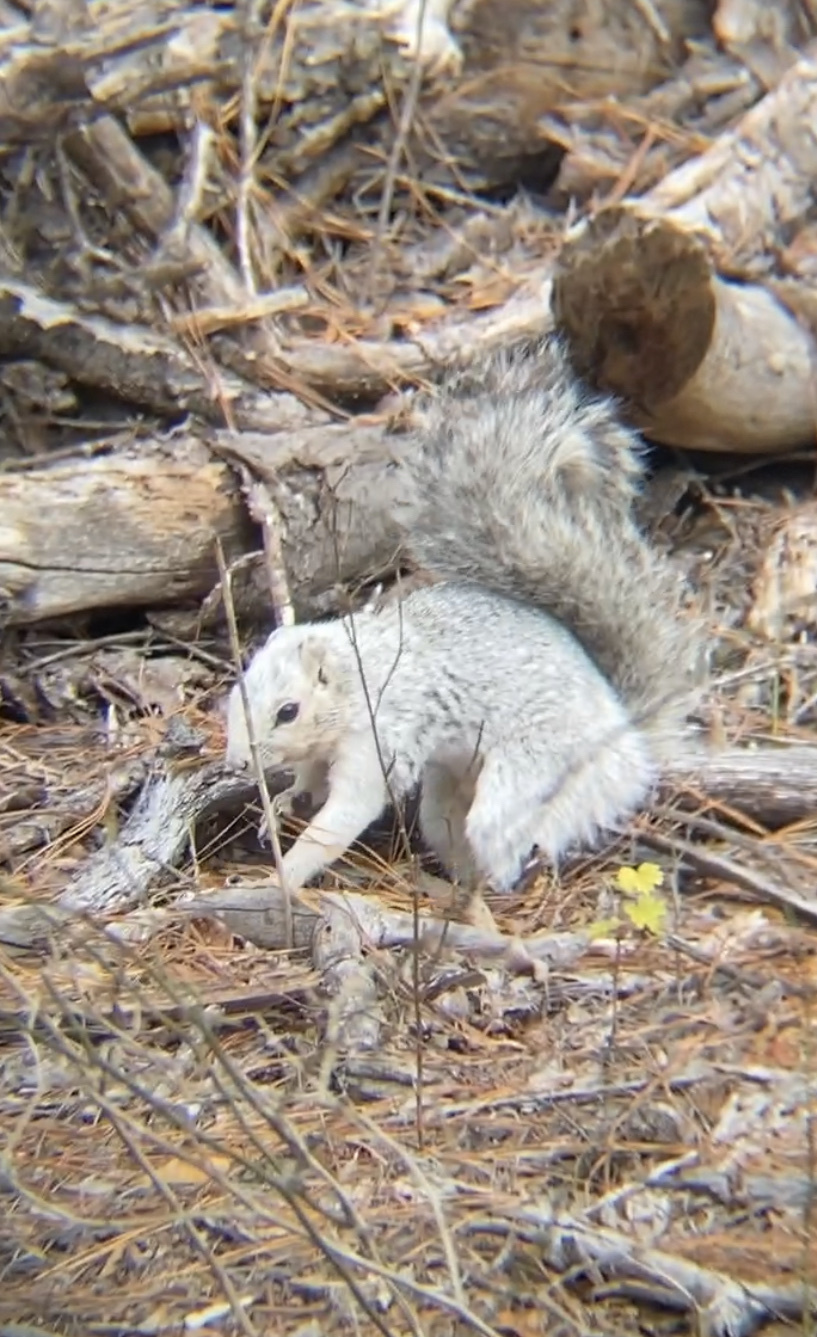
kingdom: Animalia
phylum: Chordata
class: Mammalia
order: Rodentia
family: Sciuridae
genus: Sciurus
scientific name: Sciurus niger
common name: Fox squirrel
